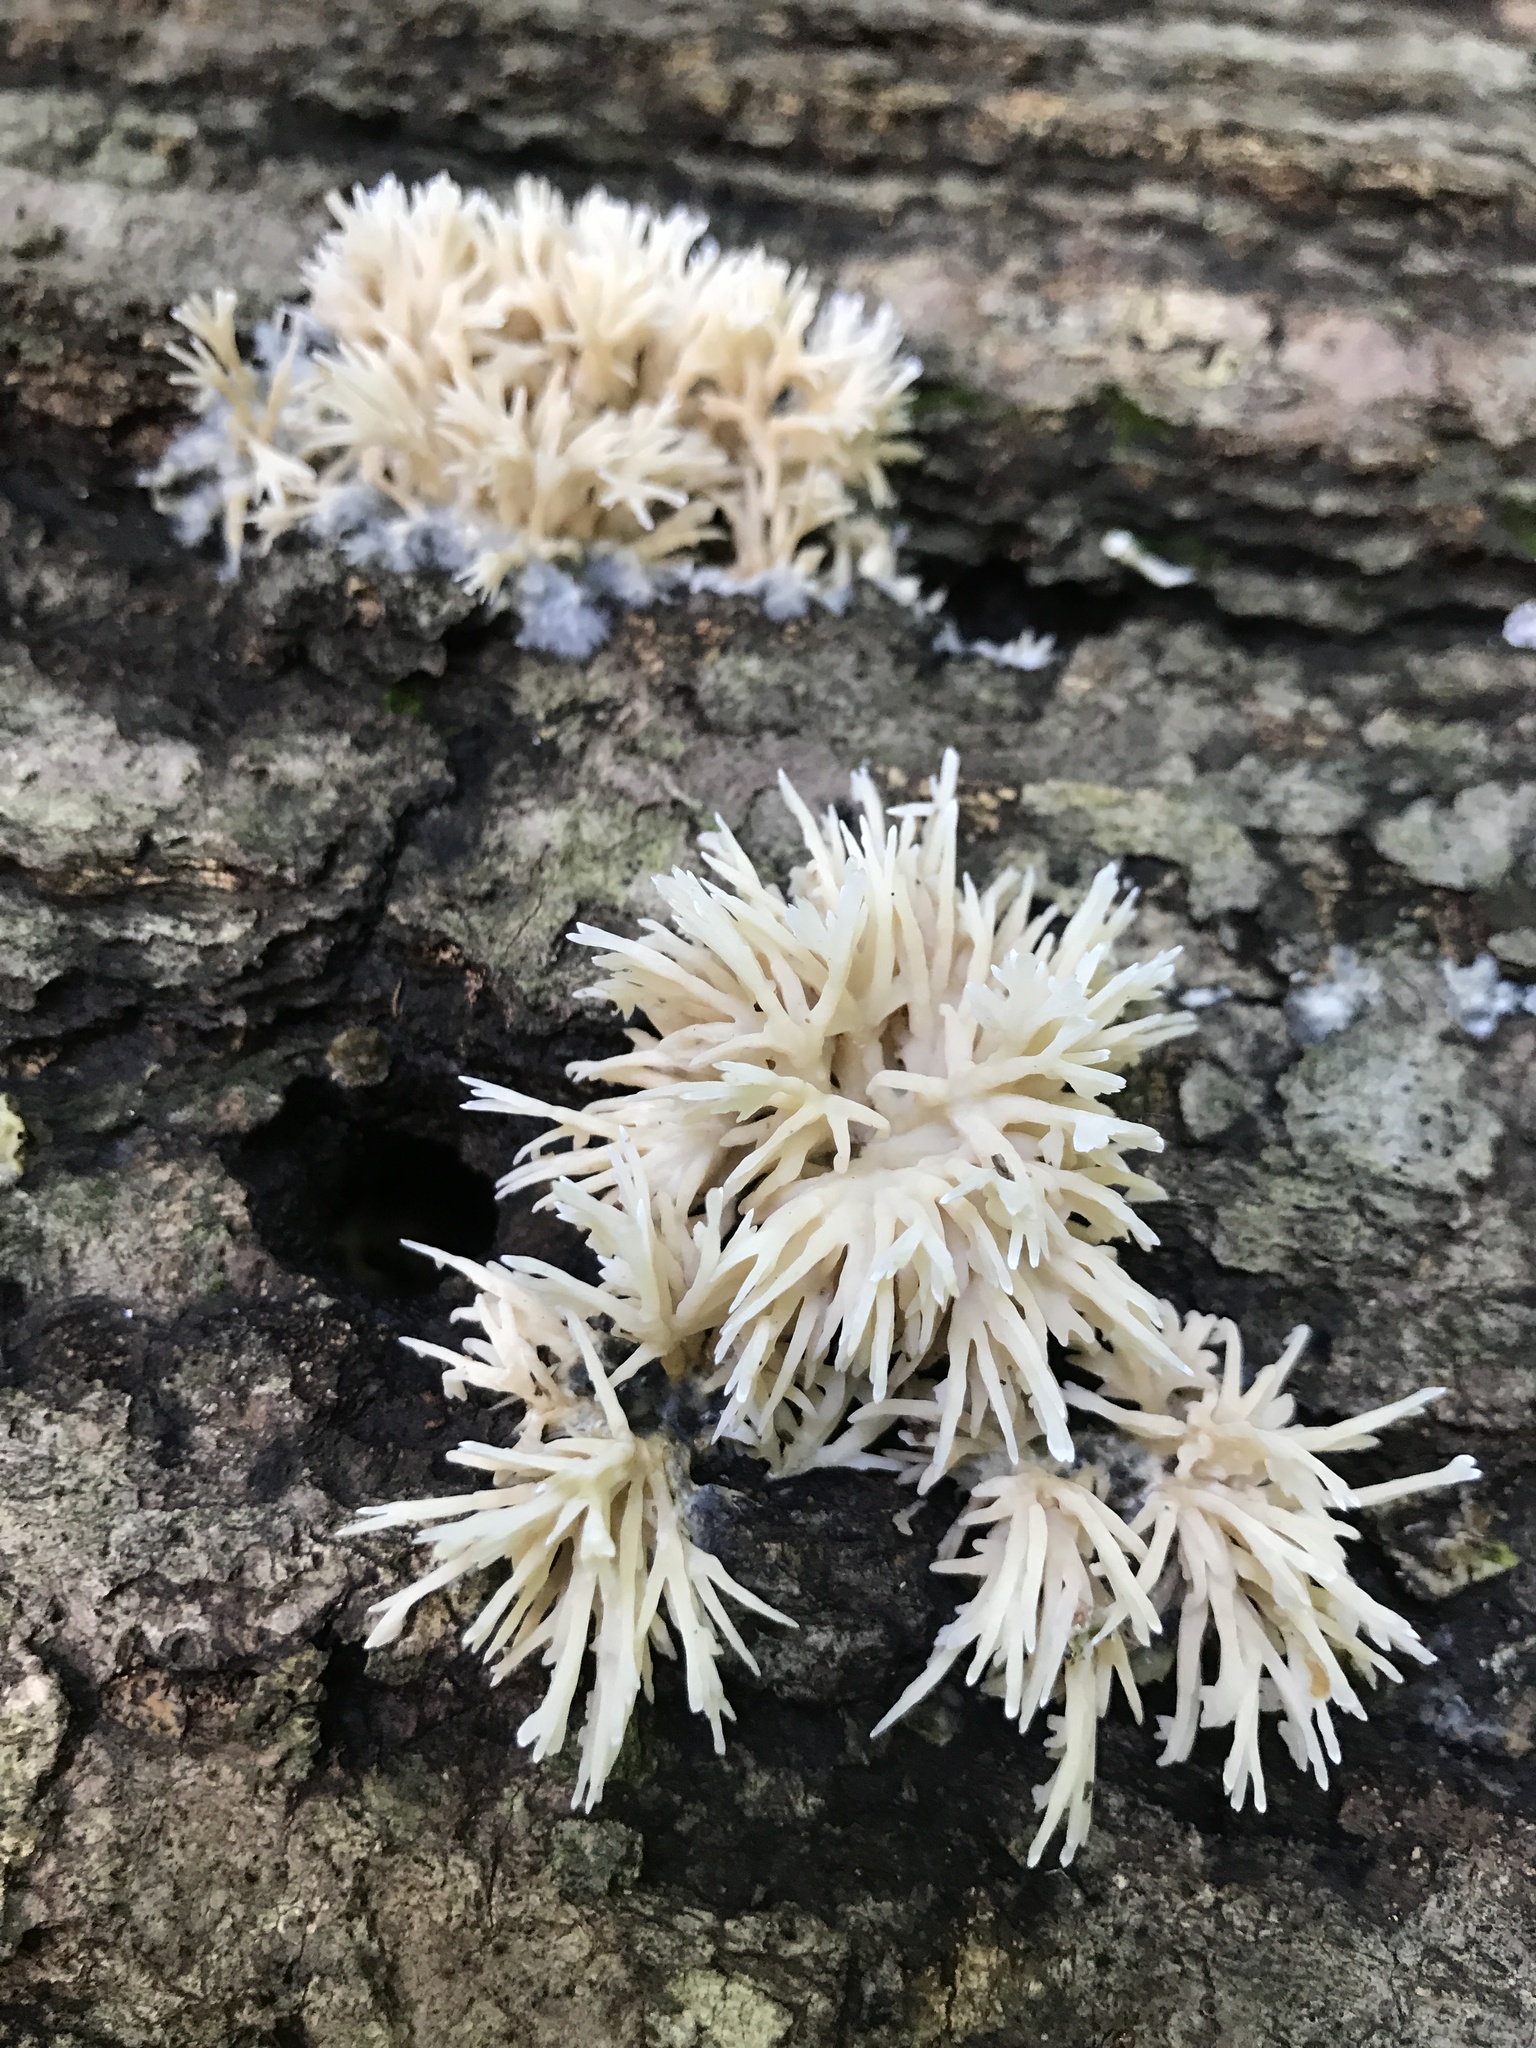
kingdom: Fungi
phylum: Basidiomycota
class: Agaricomycetes
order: Agaricales
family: Radulomycetaceae
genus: Radulomyces
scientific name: Radulomyces copelandii
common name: Asian beauty
